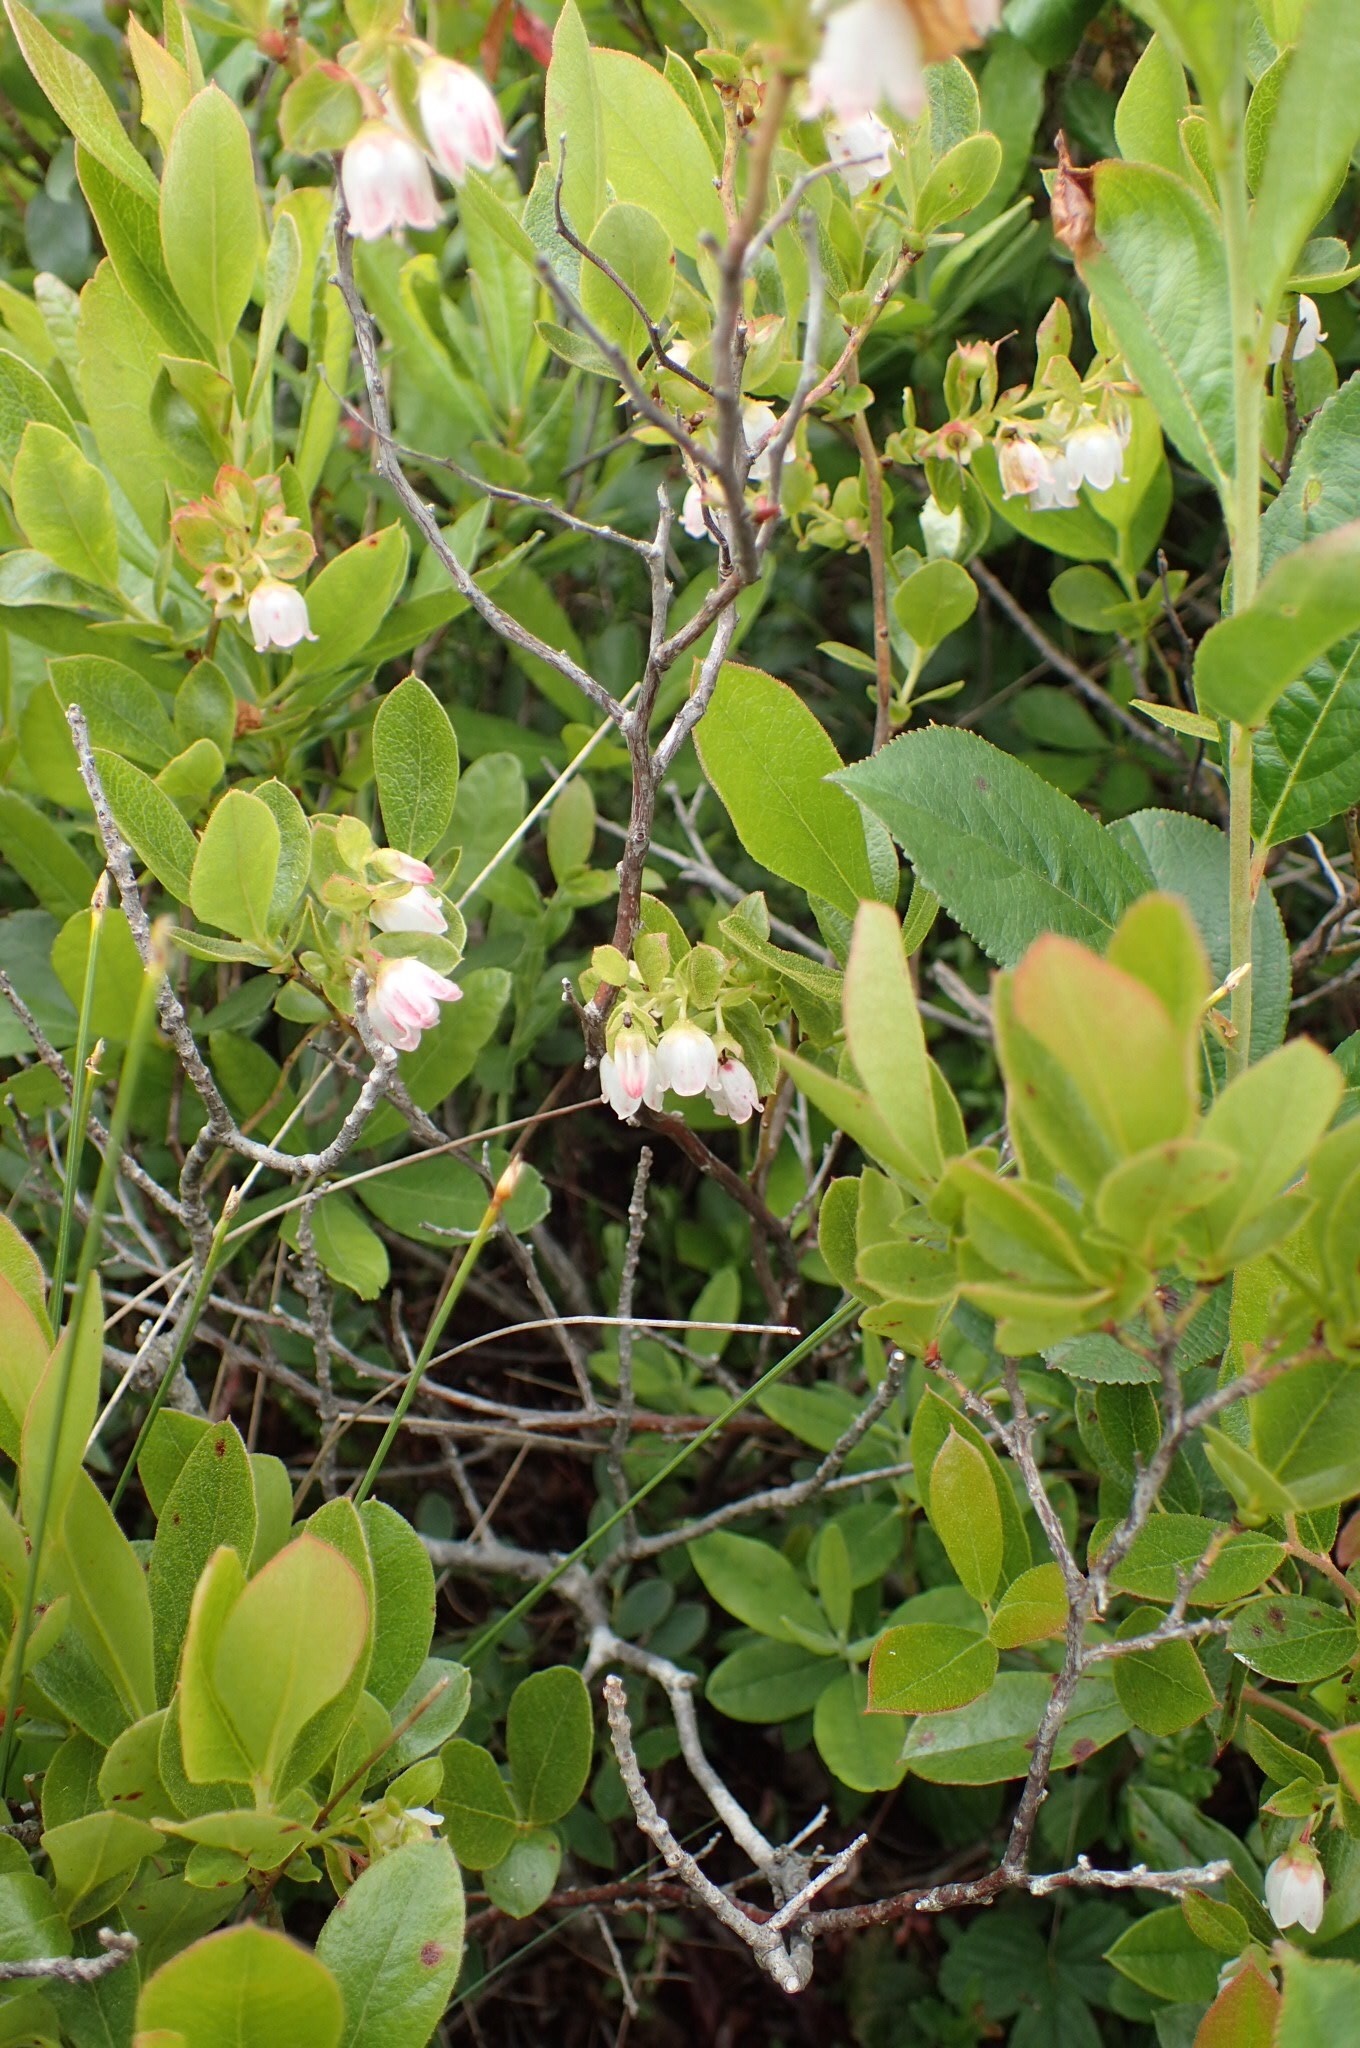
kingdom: Plantae
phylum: Tracheophyta
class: Magnoliopsida
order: Ericales
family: Ericaceae
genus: Gaylussacia
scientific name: Gaylussacia bigeloviana
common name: Bog huckleberry
